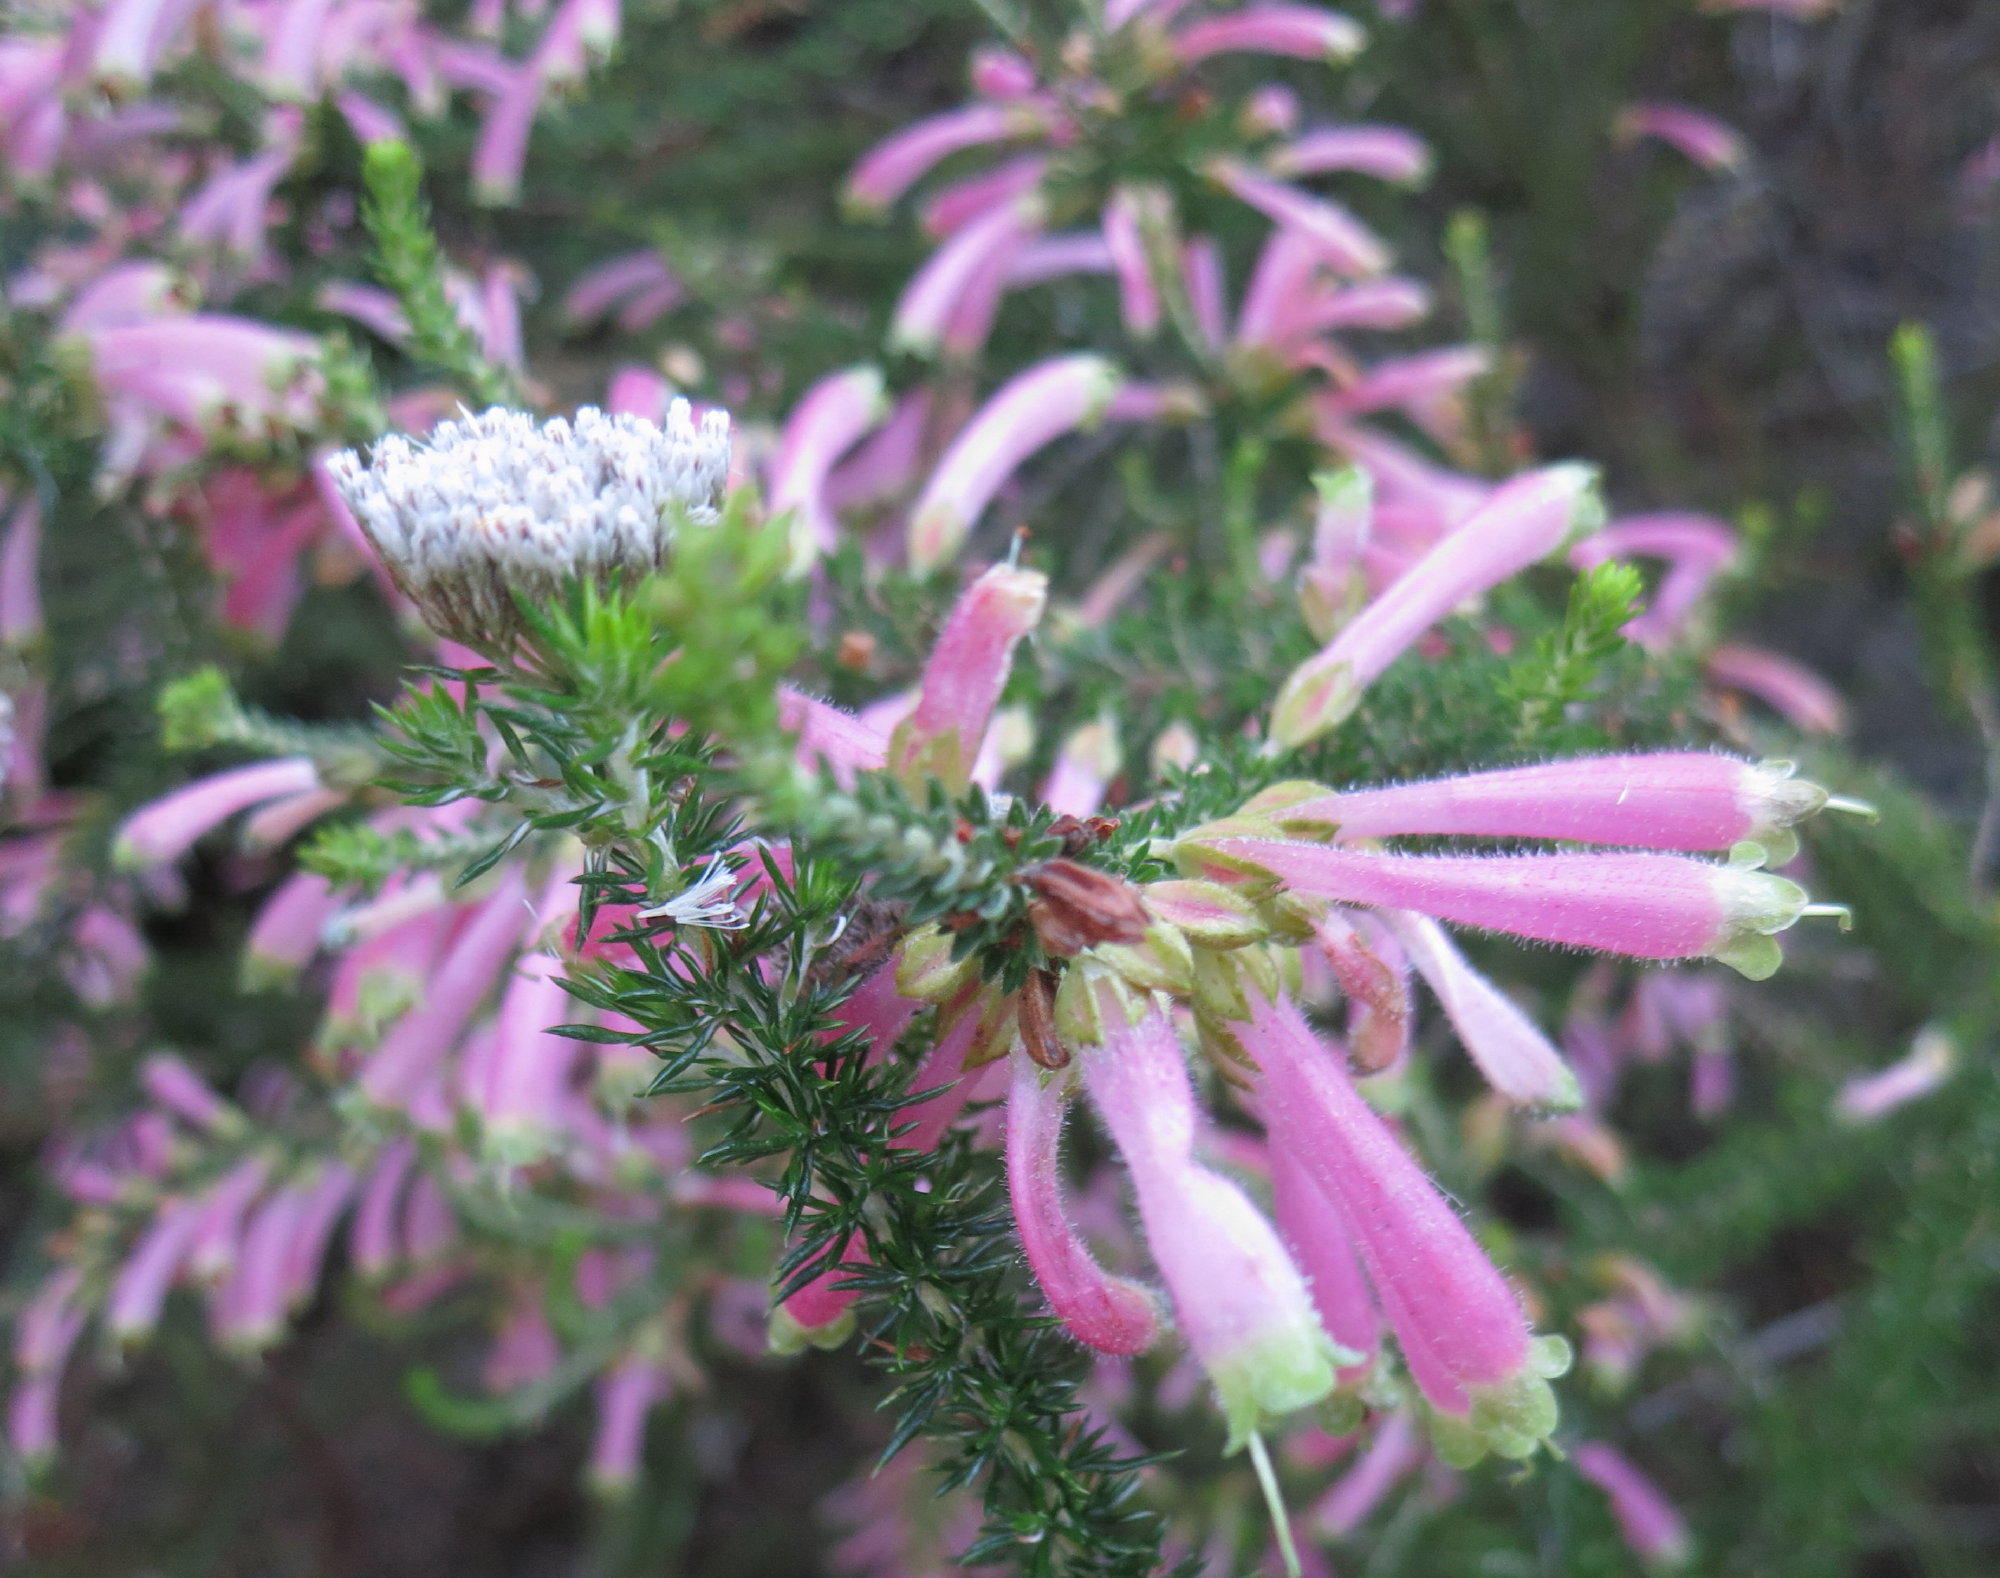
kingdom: Plantae
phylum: Tracheophyta
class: Magnoliopsida
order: Ericales
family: Ericaceae
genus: Erica
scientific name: Erica densifolia
